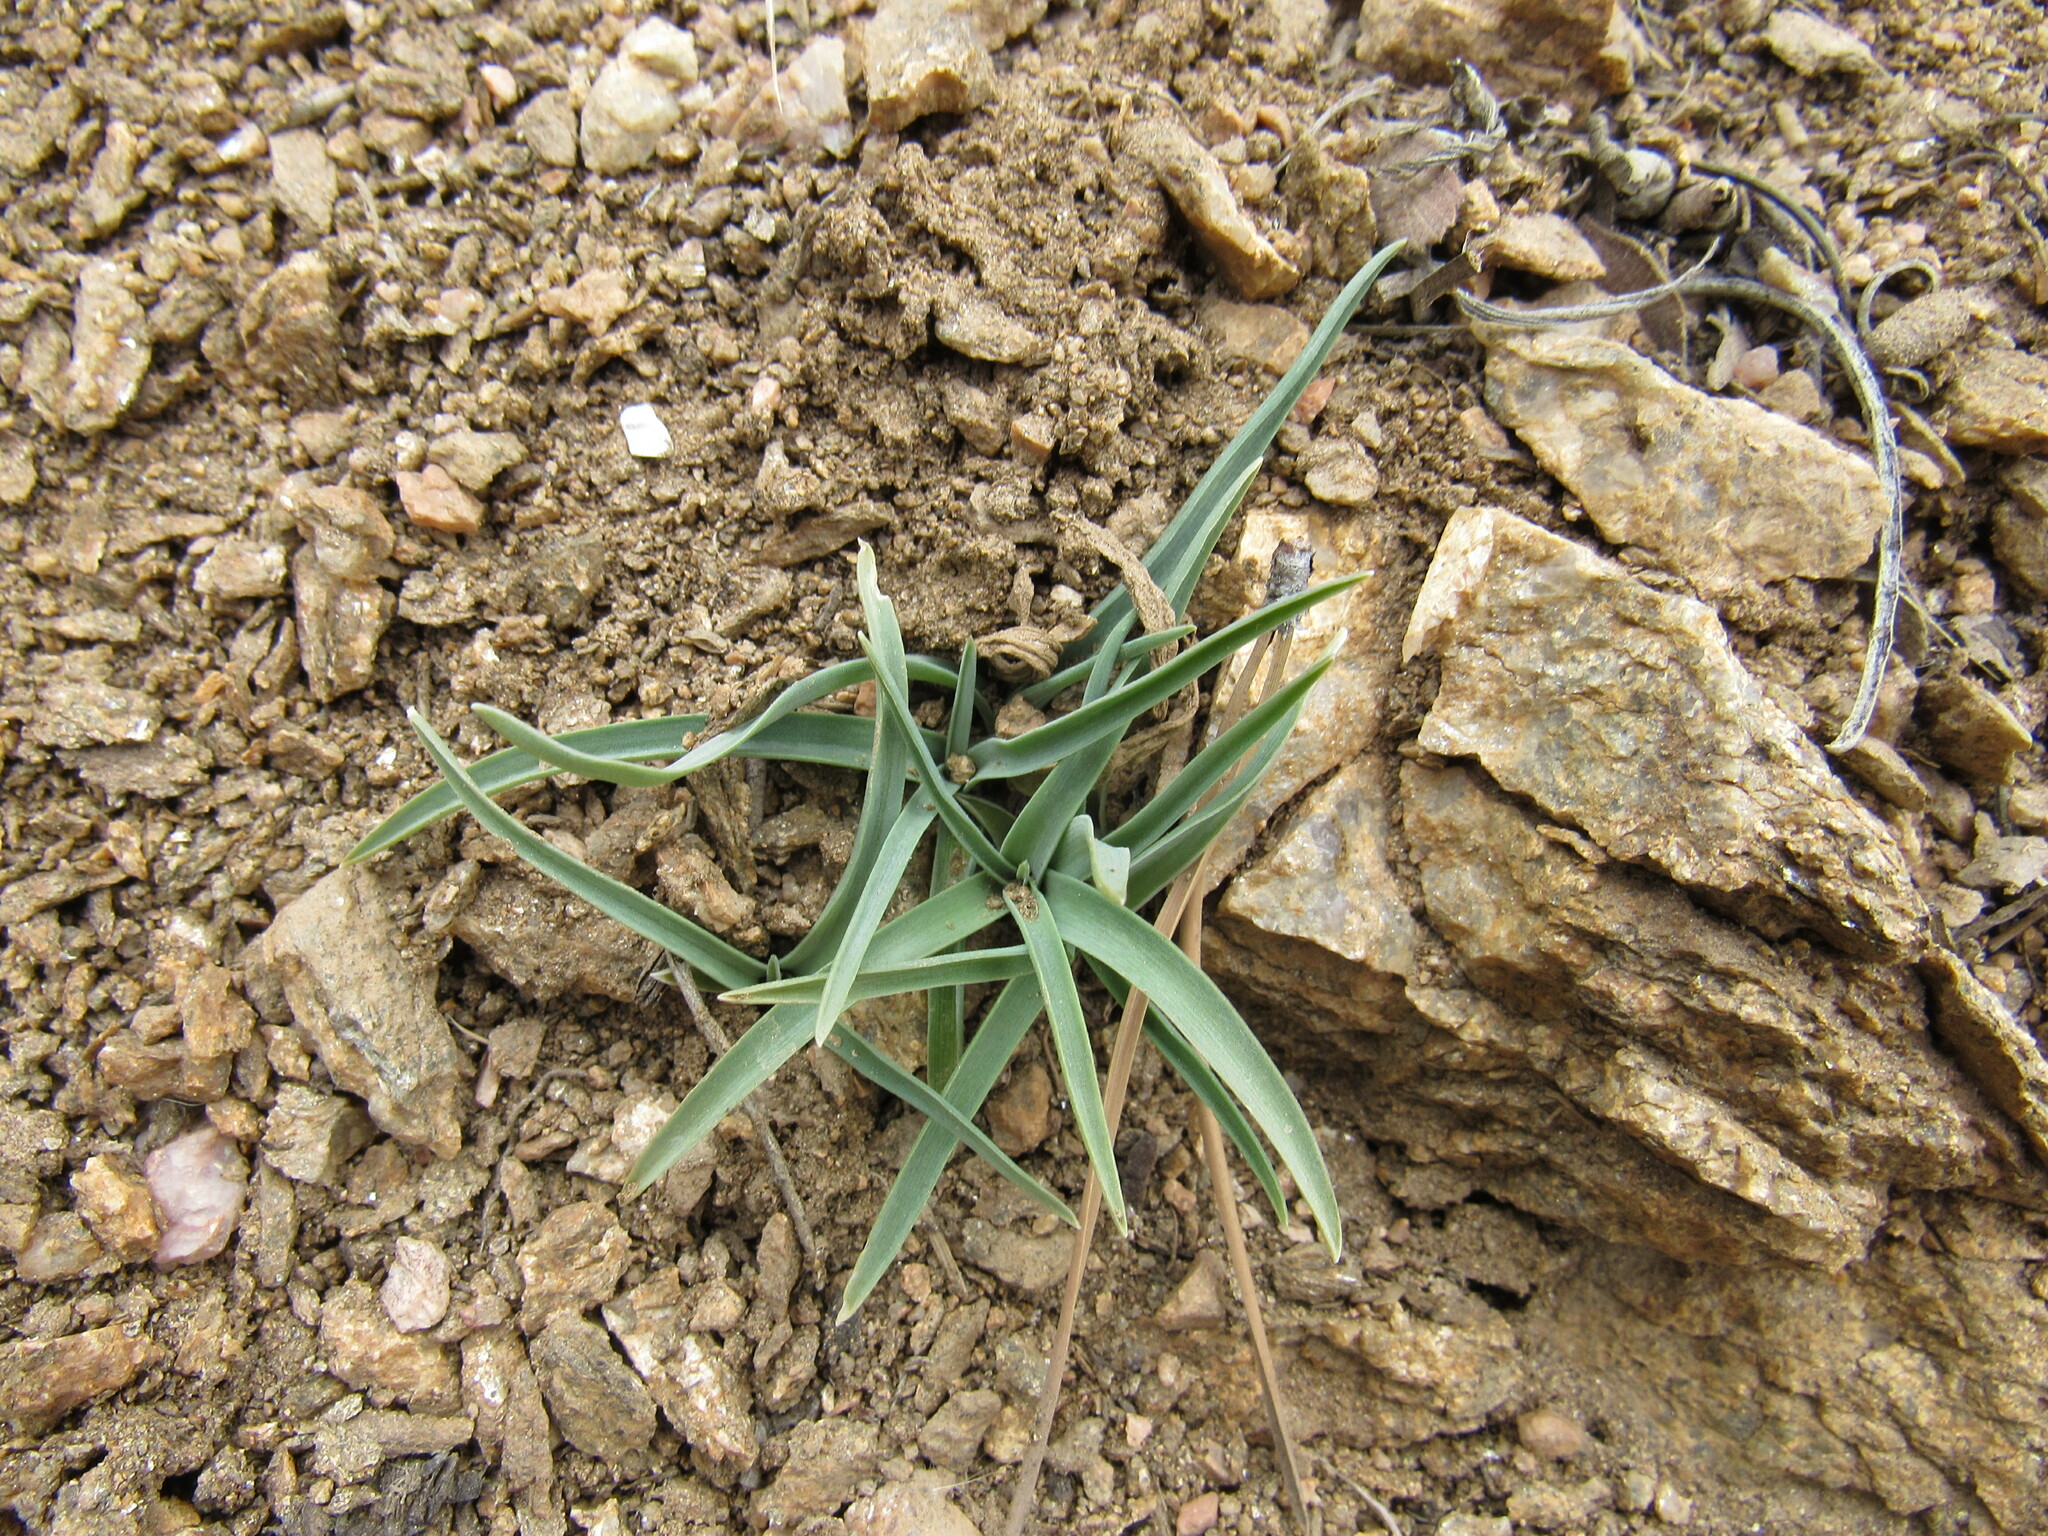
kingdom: Plantae
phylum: Tracheophyta
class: Liliopsida
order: Asparagales
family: Asparagaceae
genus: Leucocrinum
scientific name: Leucocrinum montanum
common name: Mountain-lily
